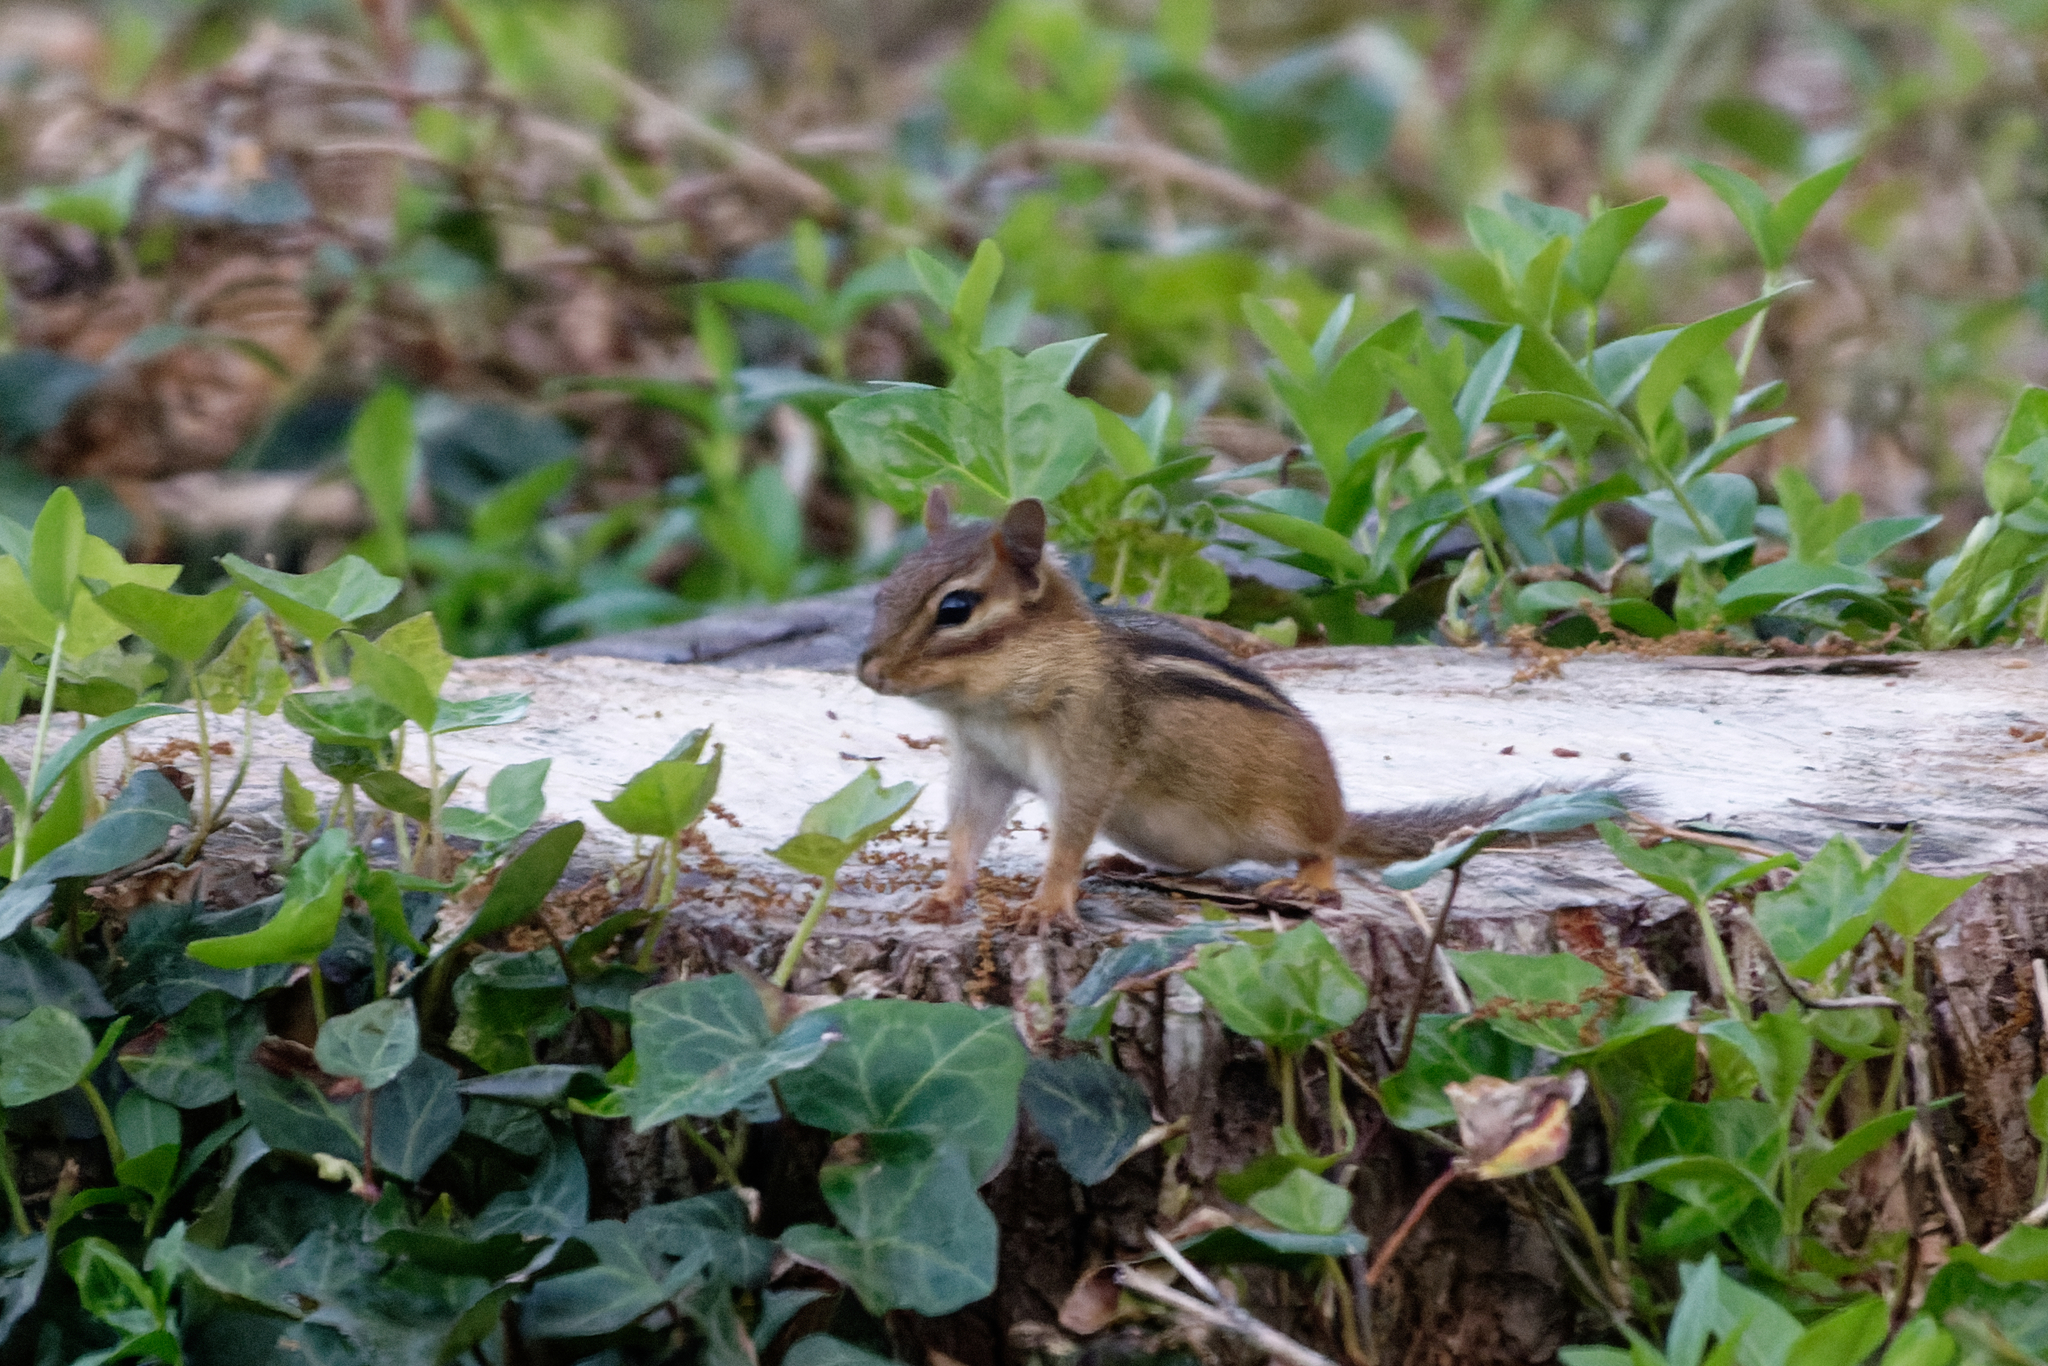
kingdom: Animalia
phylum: Chordata
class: Mammalia
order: Rodentia
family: Sciuridae
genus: Tamias
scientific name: Tamias striatus
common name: Eastern chipmunk
